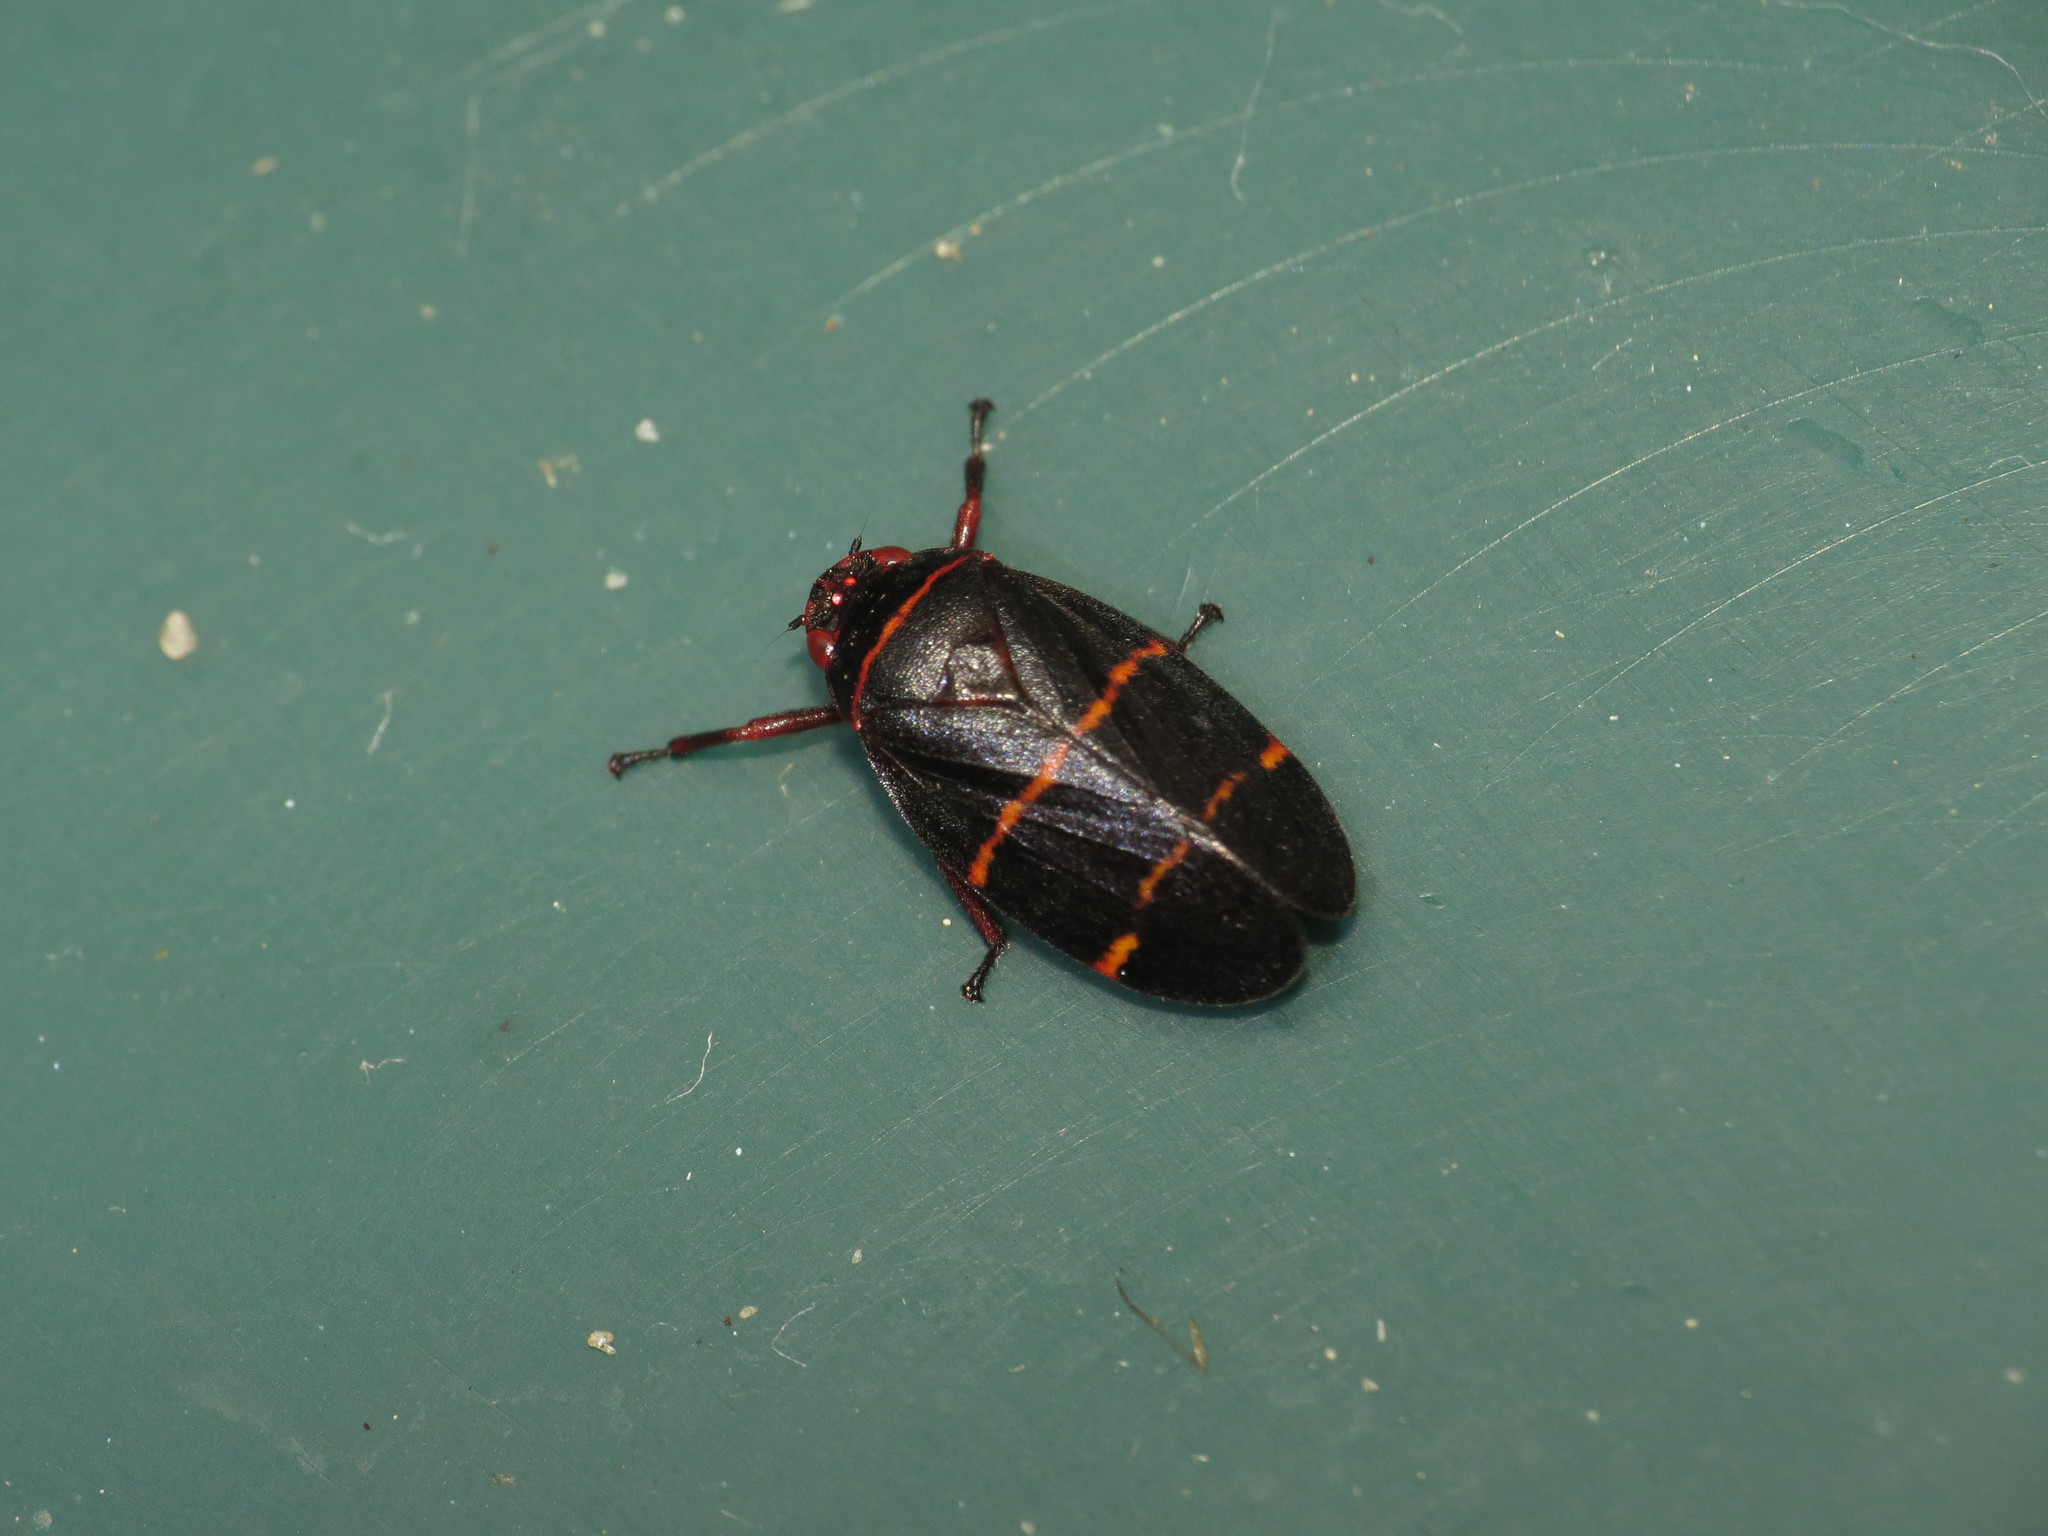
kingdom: Animalia
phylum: Arthropoda
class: Insecta
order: Hemiptera
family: Cercopidae
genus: Prosapia
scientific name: Prosapia bicincta
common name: Twolined spittlebug
